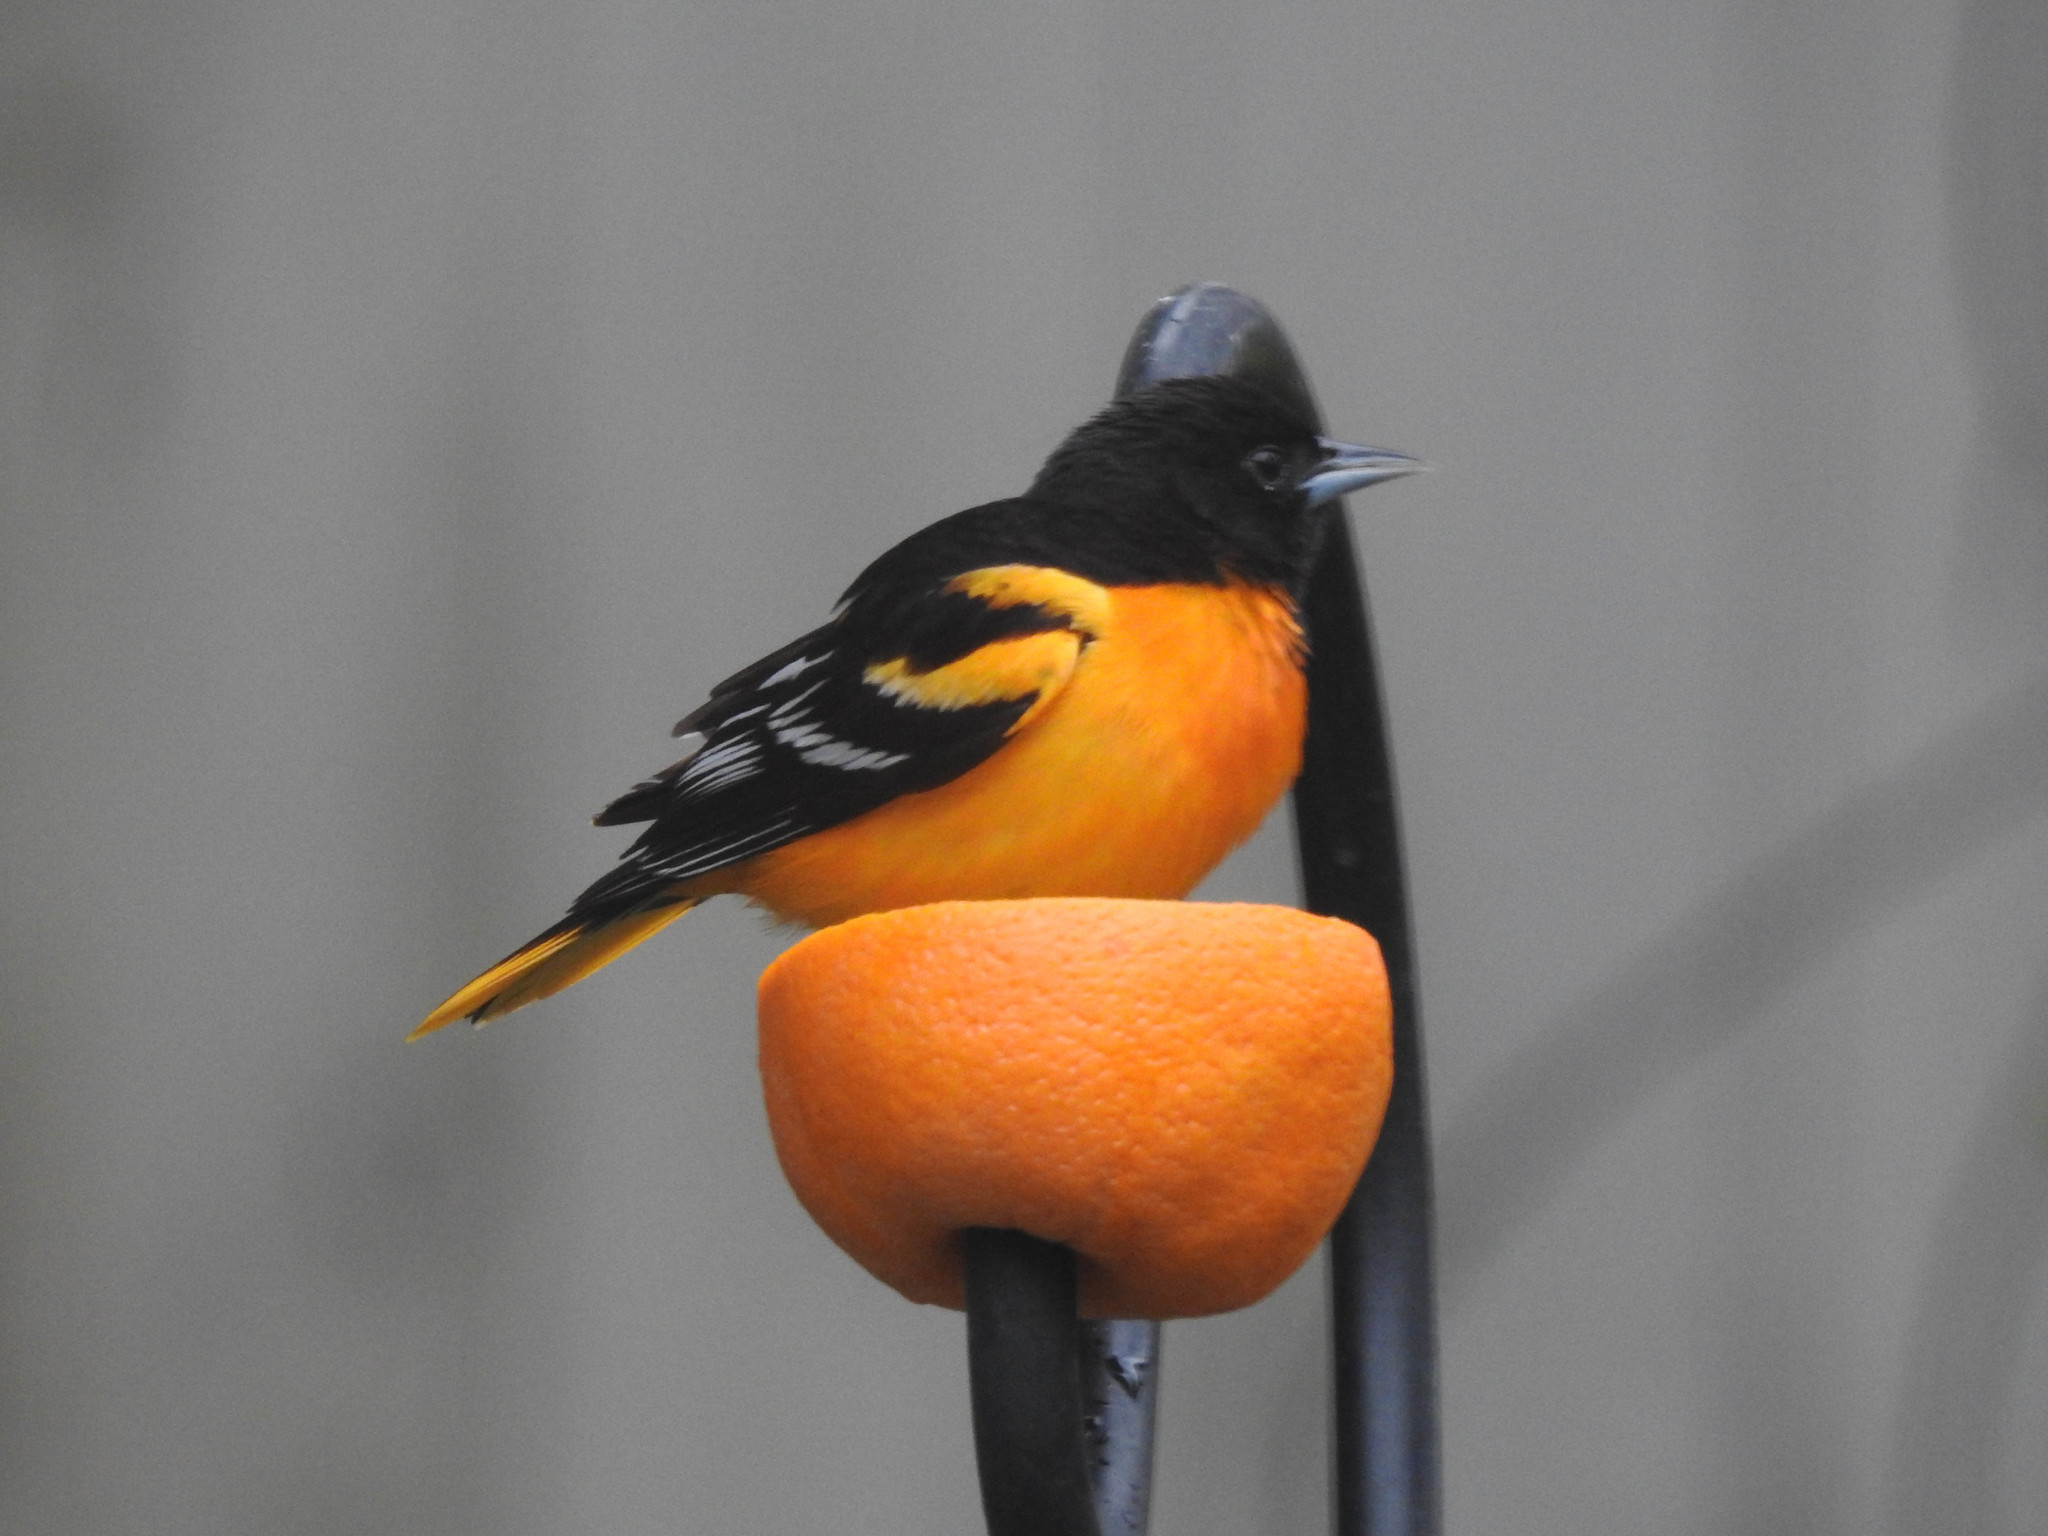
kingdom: Animalia
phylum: Chordata
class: Aves
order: Passeriformes
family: Icteridae
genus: Icterus
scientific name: Icterus galbula
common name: Baltimore oriole
